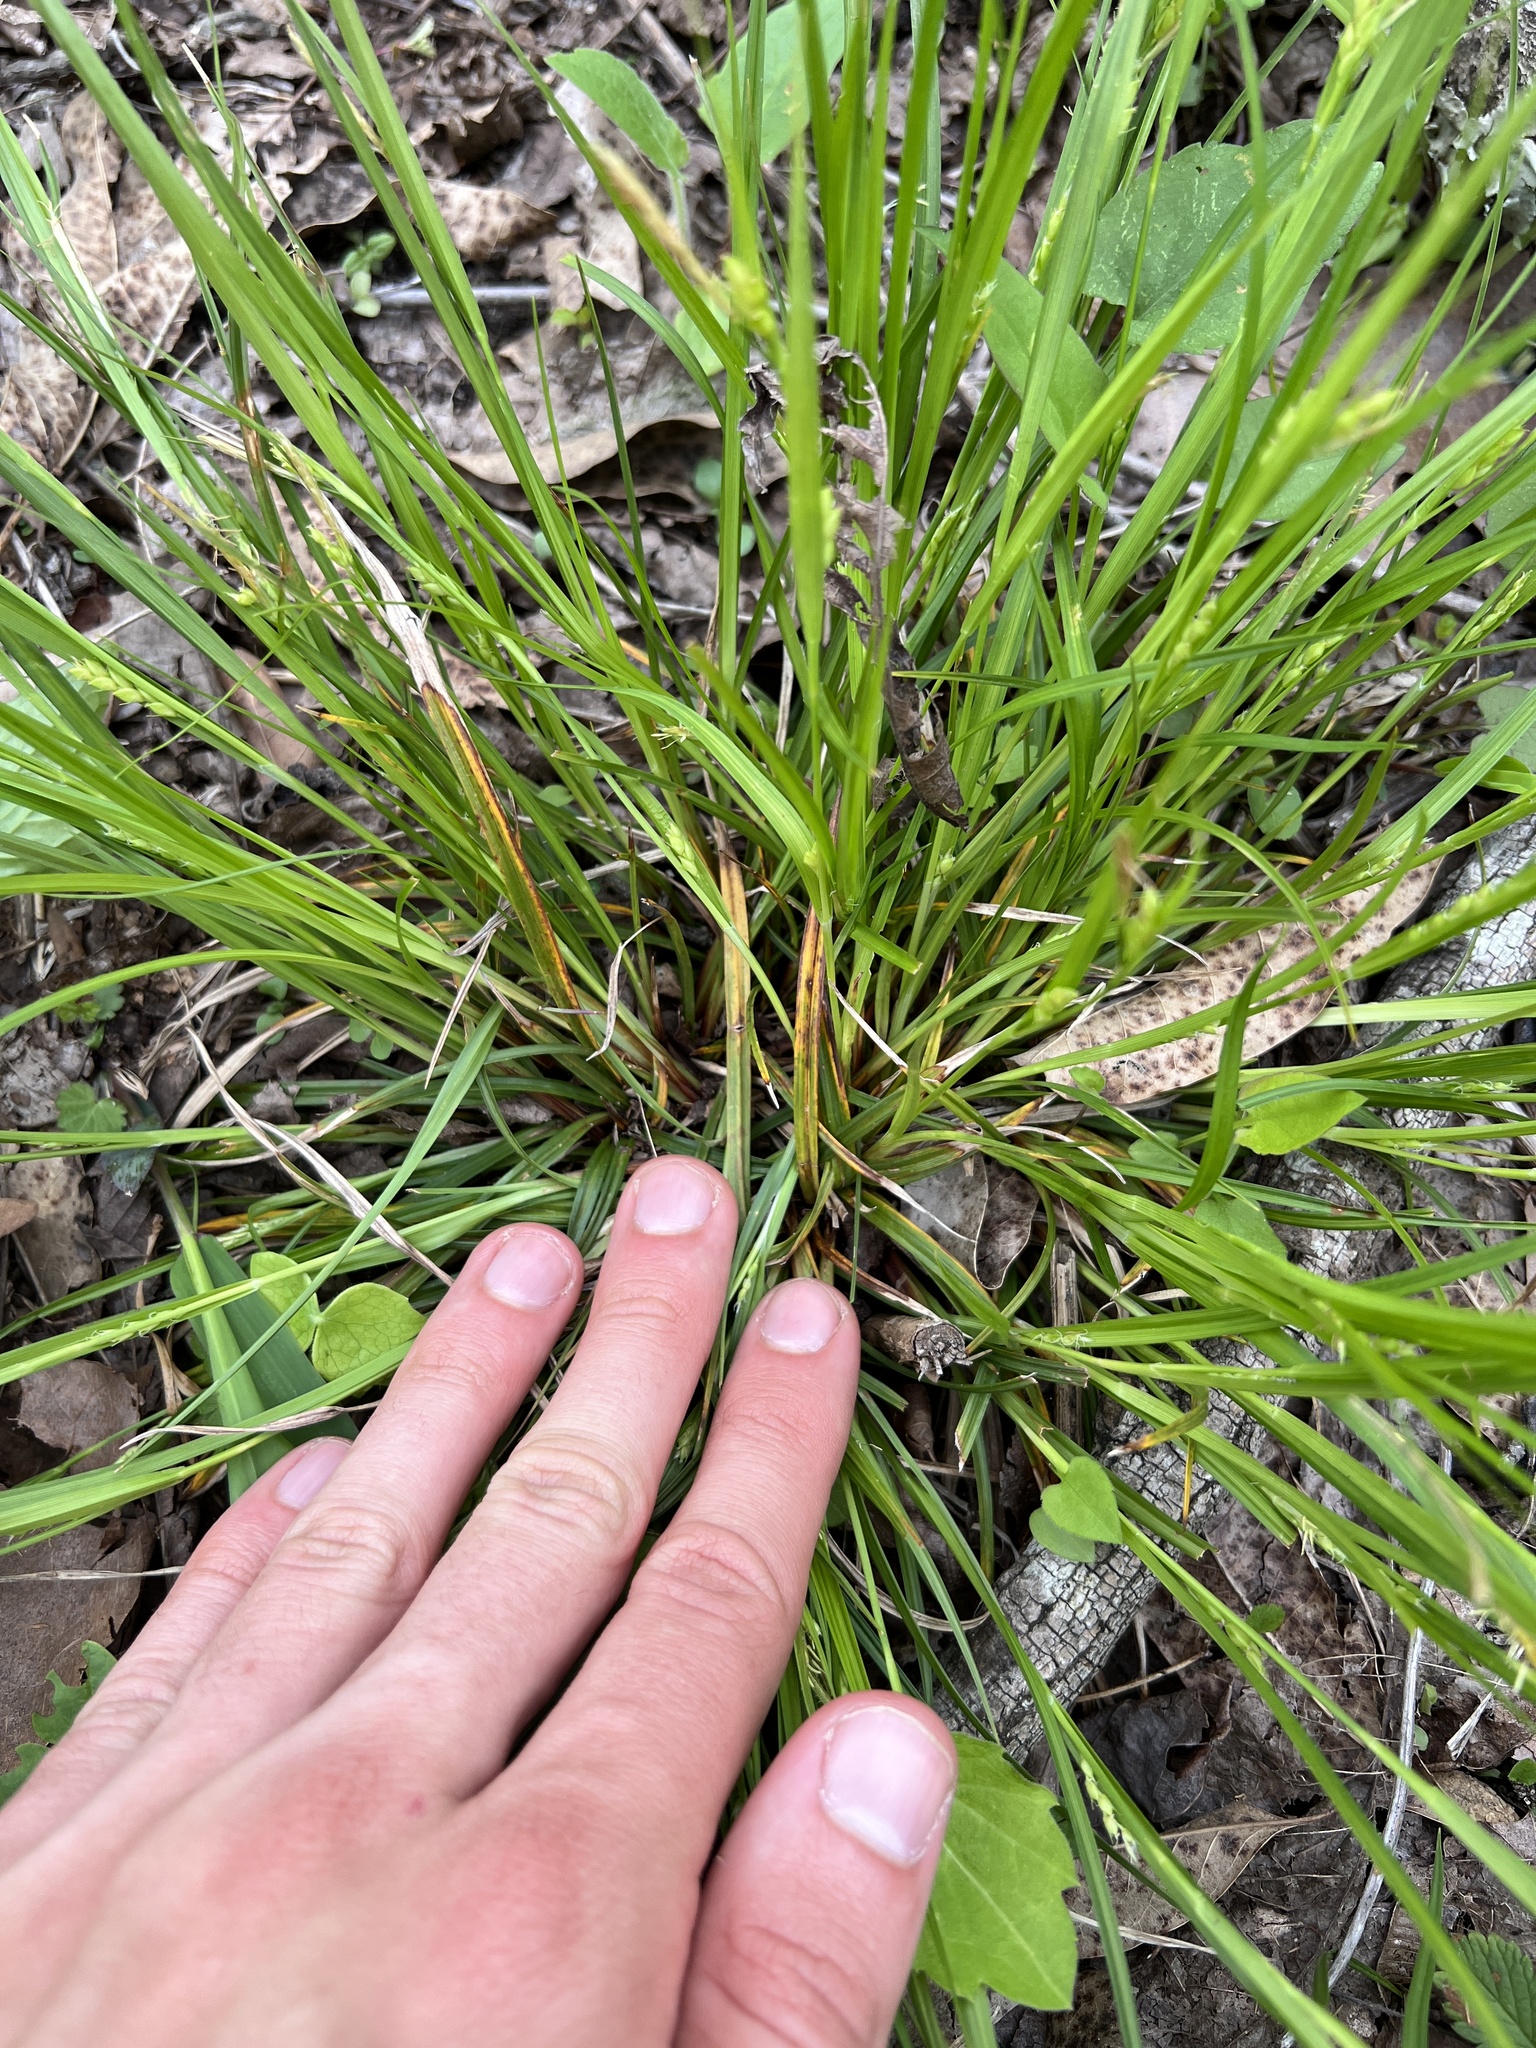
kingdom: Plantae
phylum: Tracheophyta
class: Liliopsida
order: Poales
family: Cyperaceae
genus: Carex
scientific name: Carex planispicata
